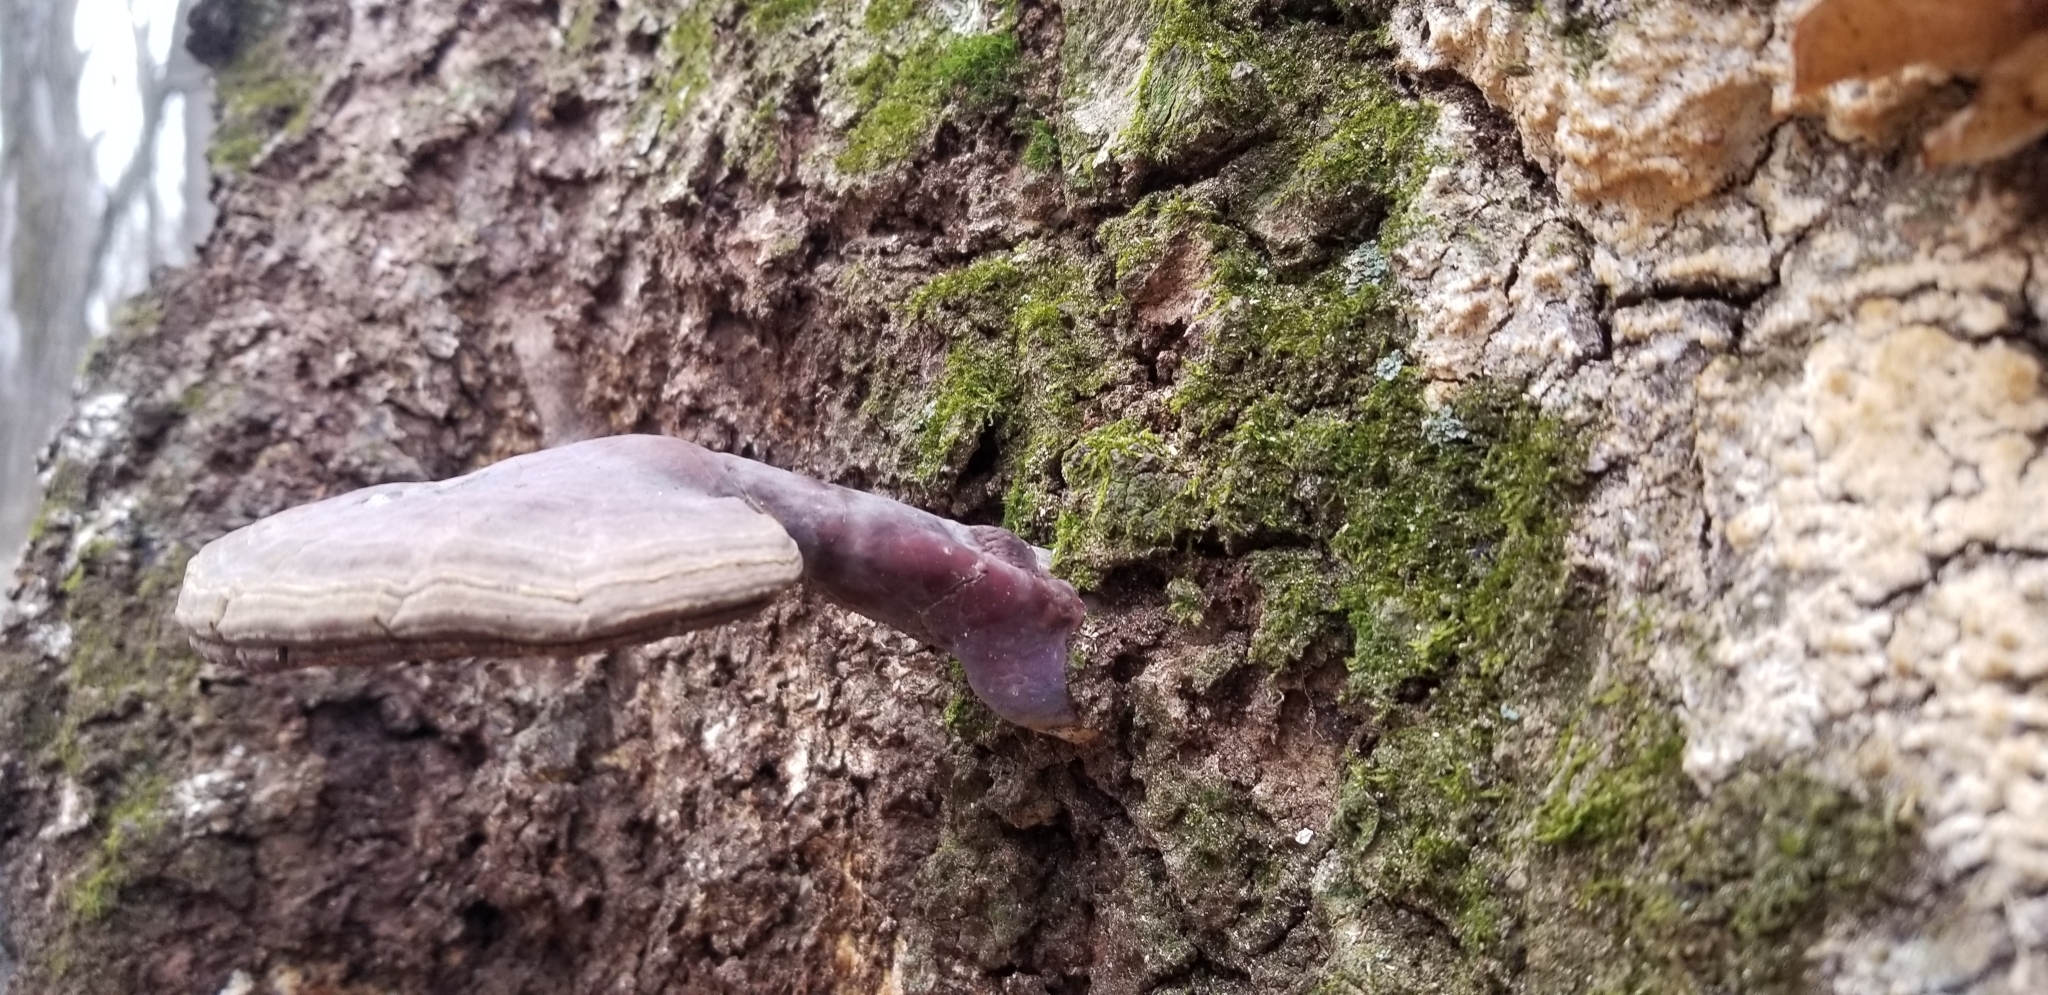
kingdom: Fungi
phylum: Basidiomycota
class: Agaricomycetes
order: Polyporales
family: Polyporaceae
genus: Ganoderma
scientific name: Ganoderma curtisii
